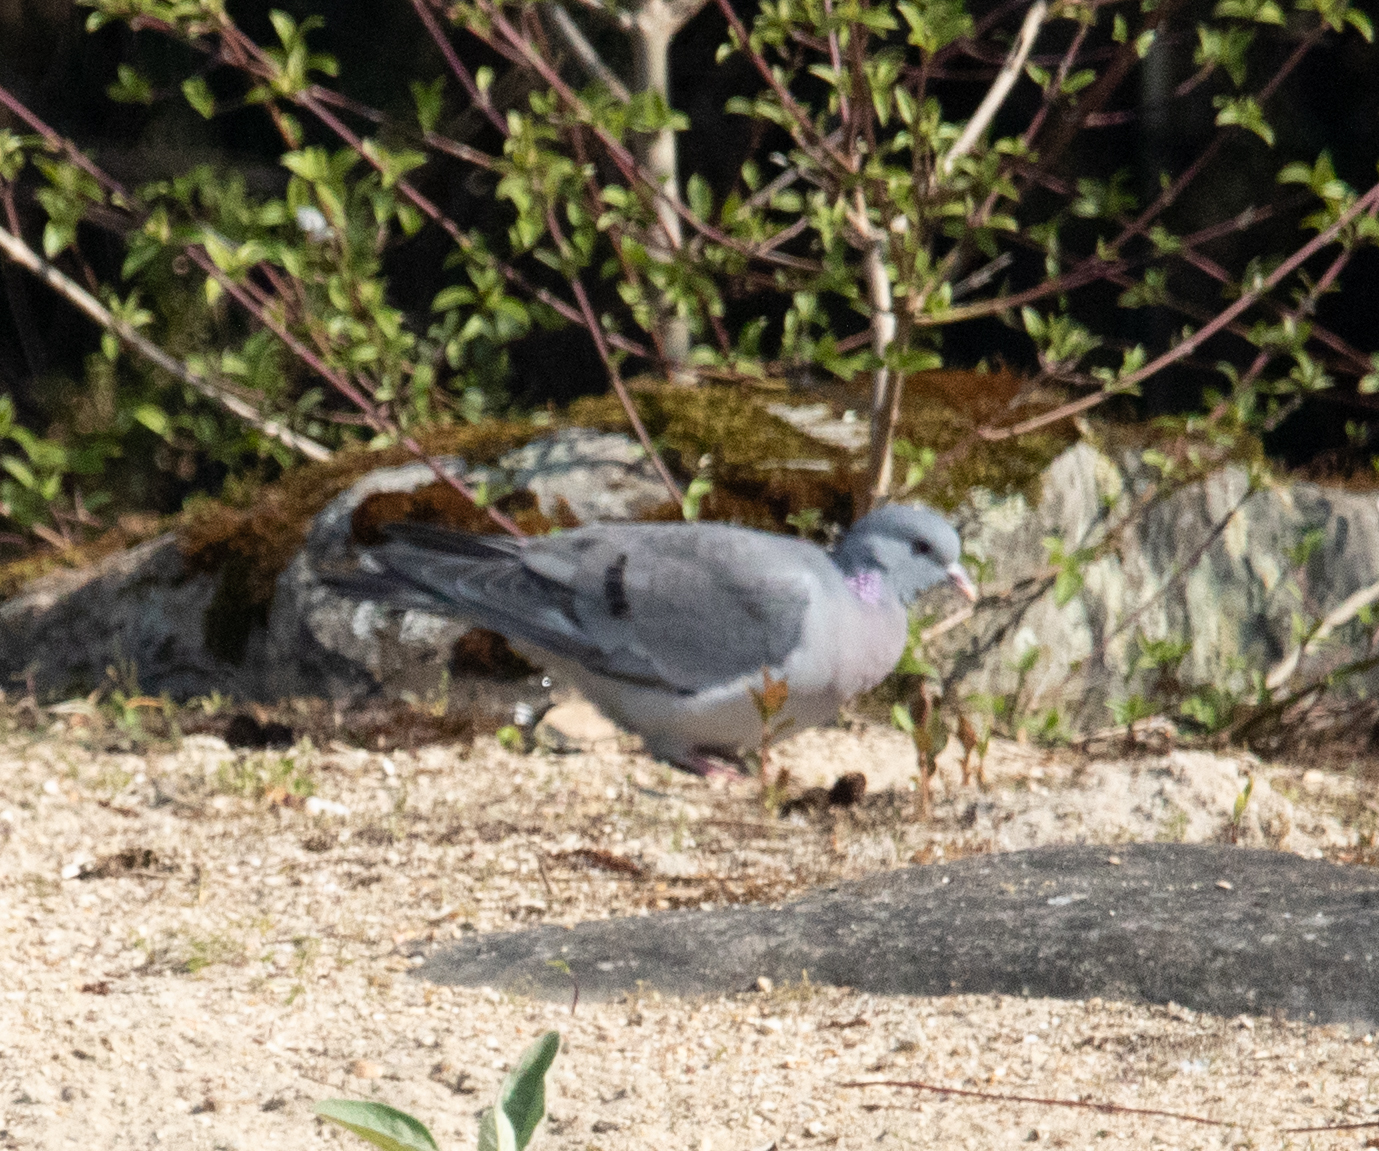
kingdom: Animalia
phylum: Chordata
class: Aves
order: Columbiformes
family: Columbidae
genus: Columba
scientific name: Columba oenas
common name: Stock dove
